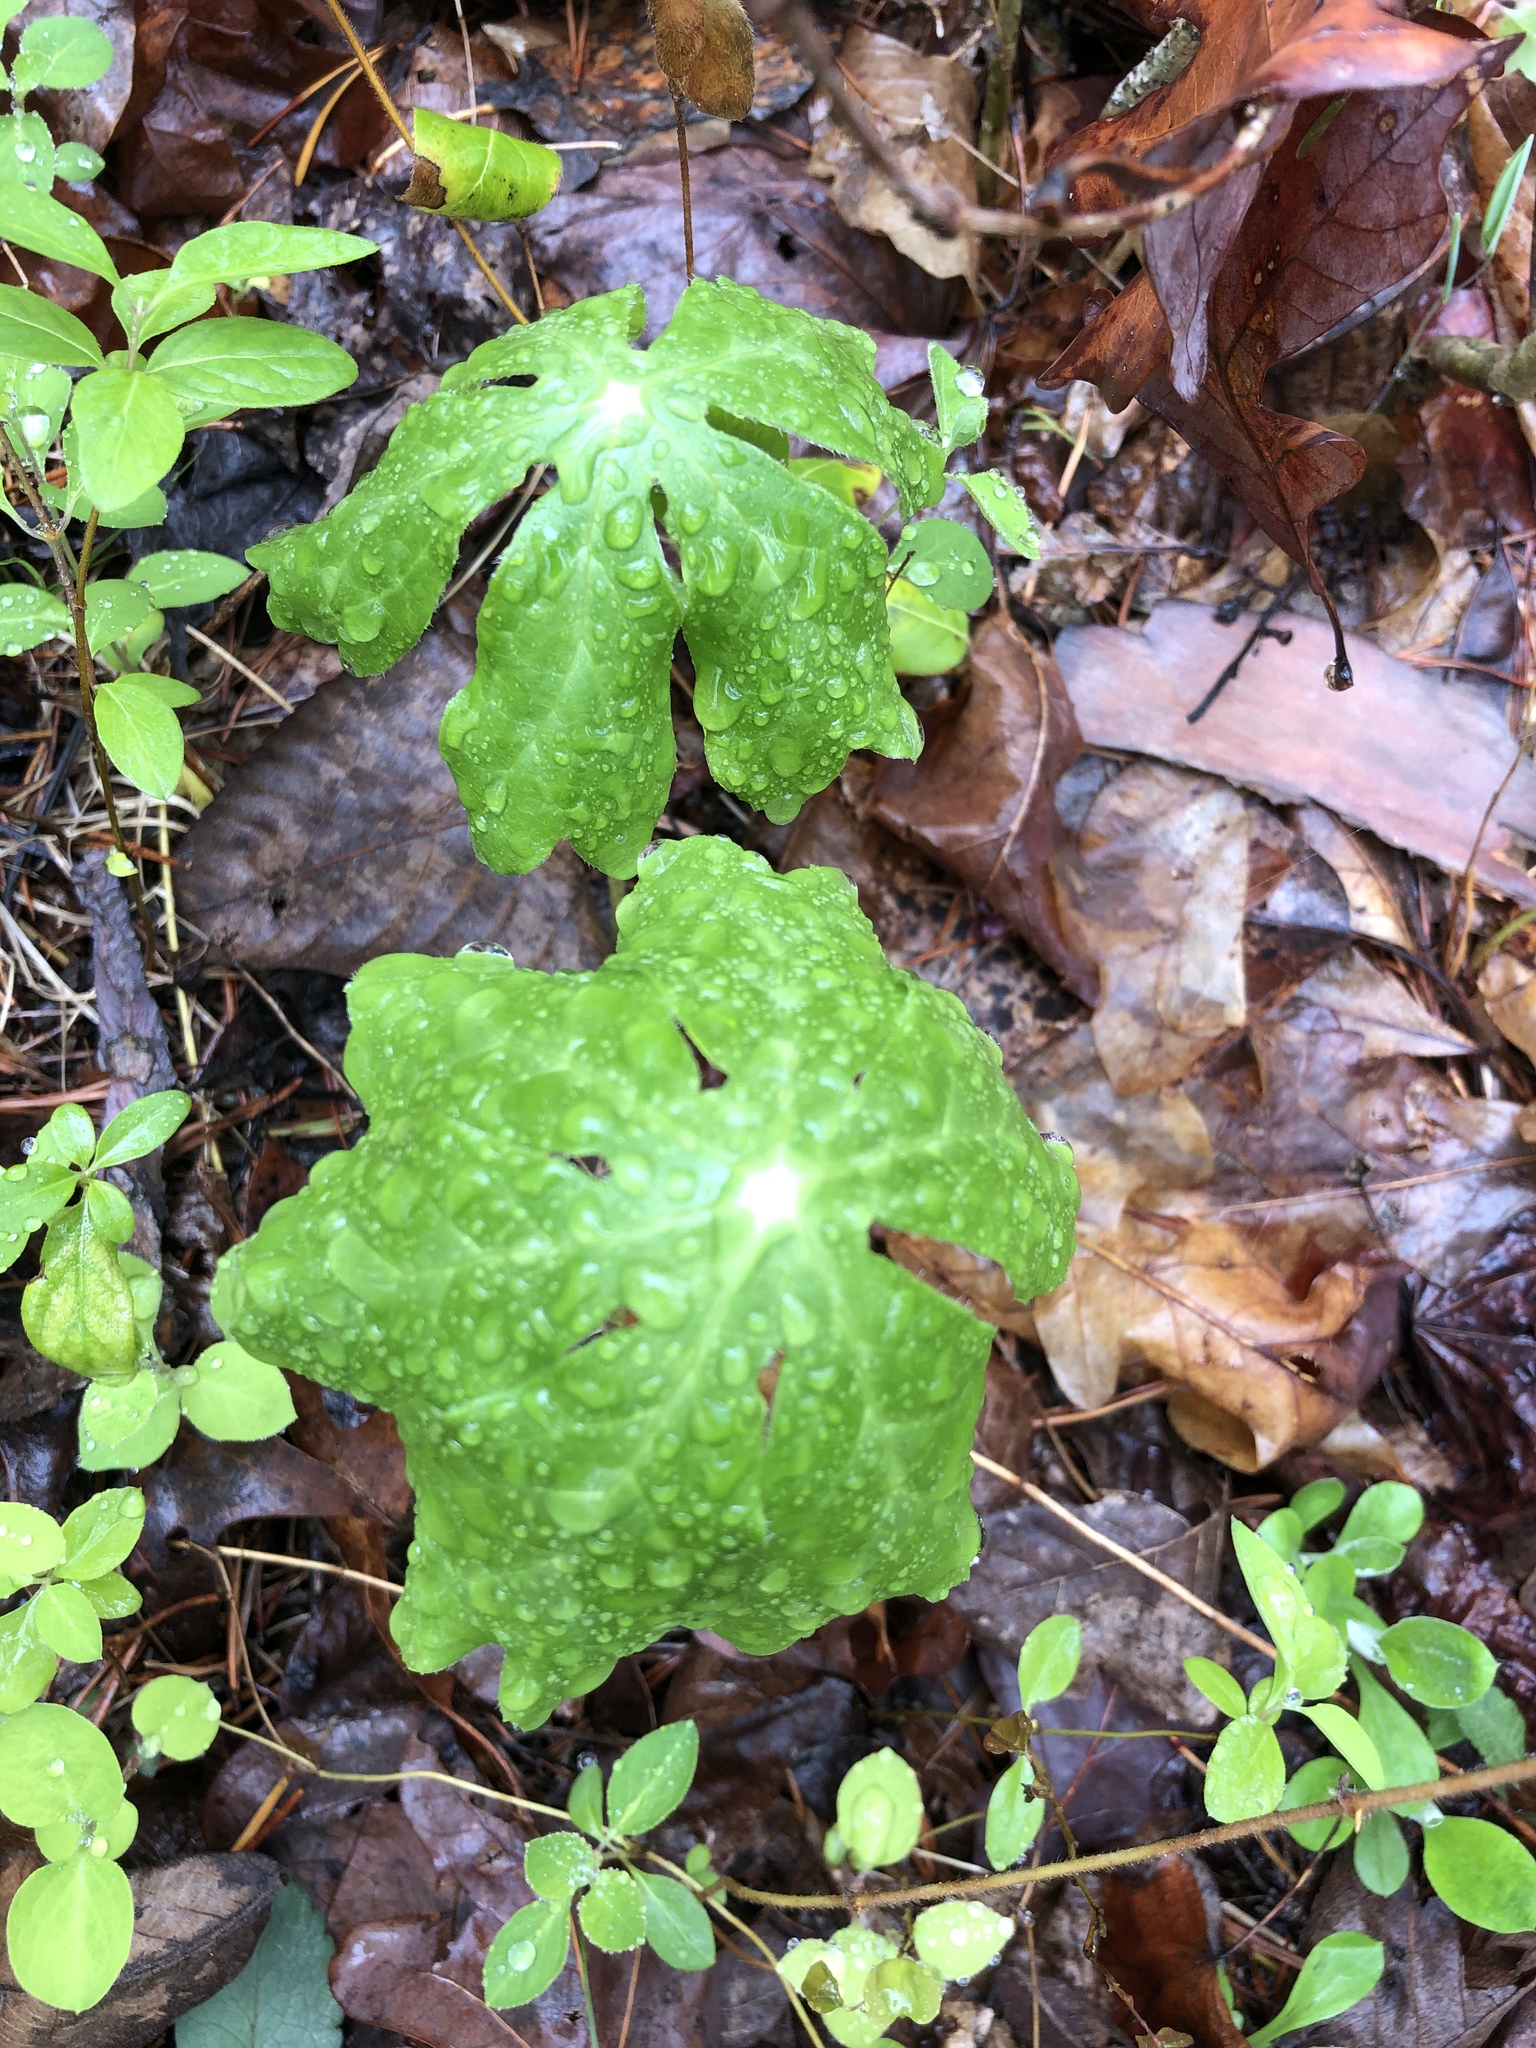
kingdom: Plantae
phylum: Tracheophyta
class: Magnoliopsida
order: Ranunculales
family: Berberidaceae
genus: Podophyllum
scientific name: Podophyllum peltatum
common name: Wild mandrake
